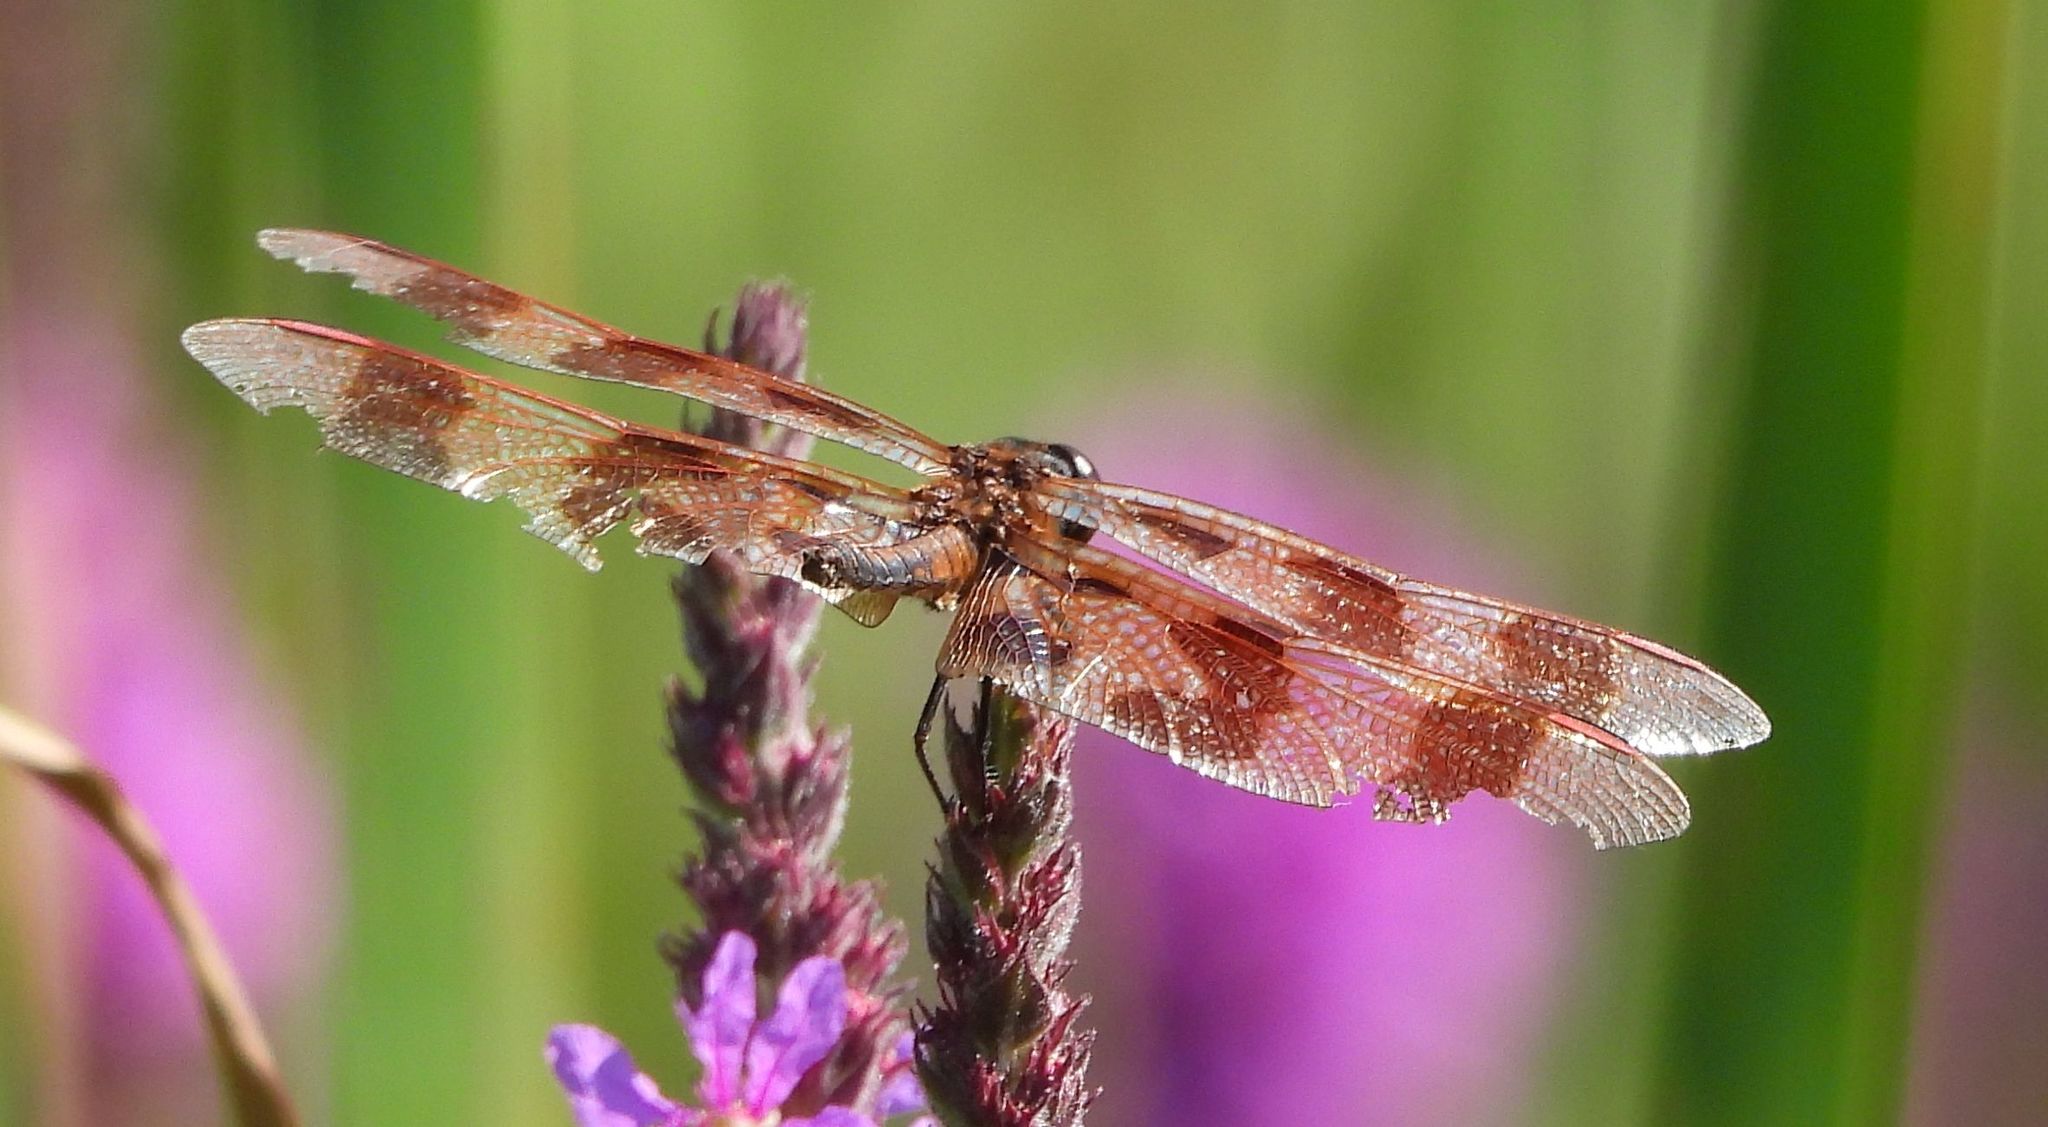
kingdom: Animalia
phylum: Arthropoda
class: Insecta
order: Odonata
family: Libellulidae
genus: Celithemis
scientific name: Celithemis eponina
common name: Halloween pennant
